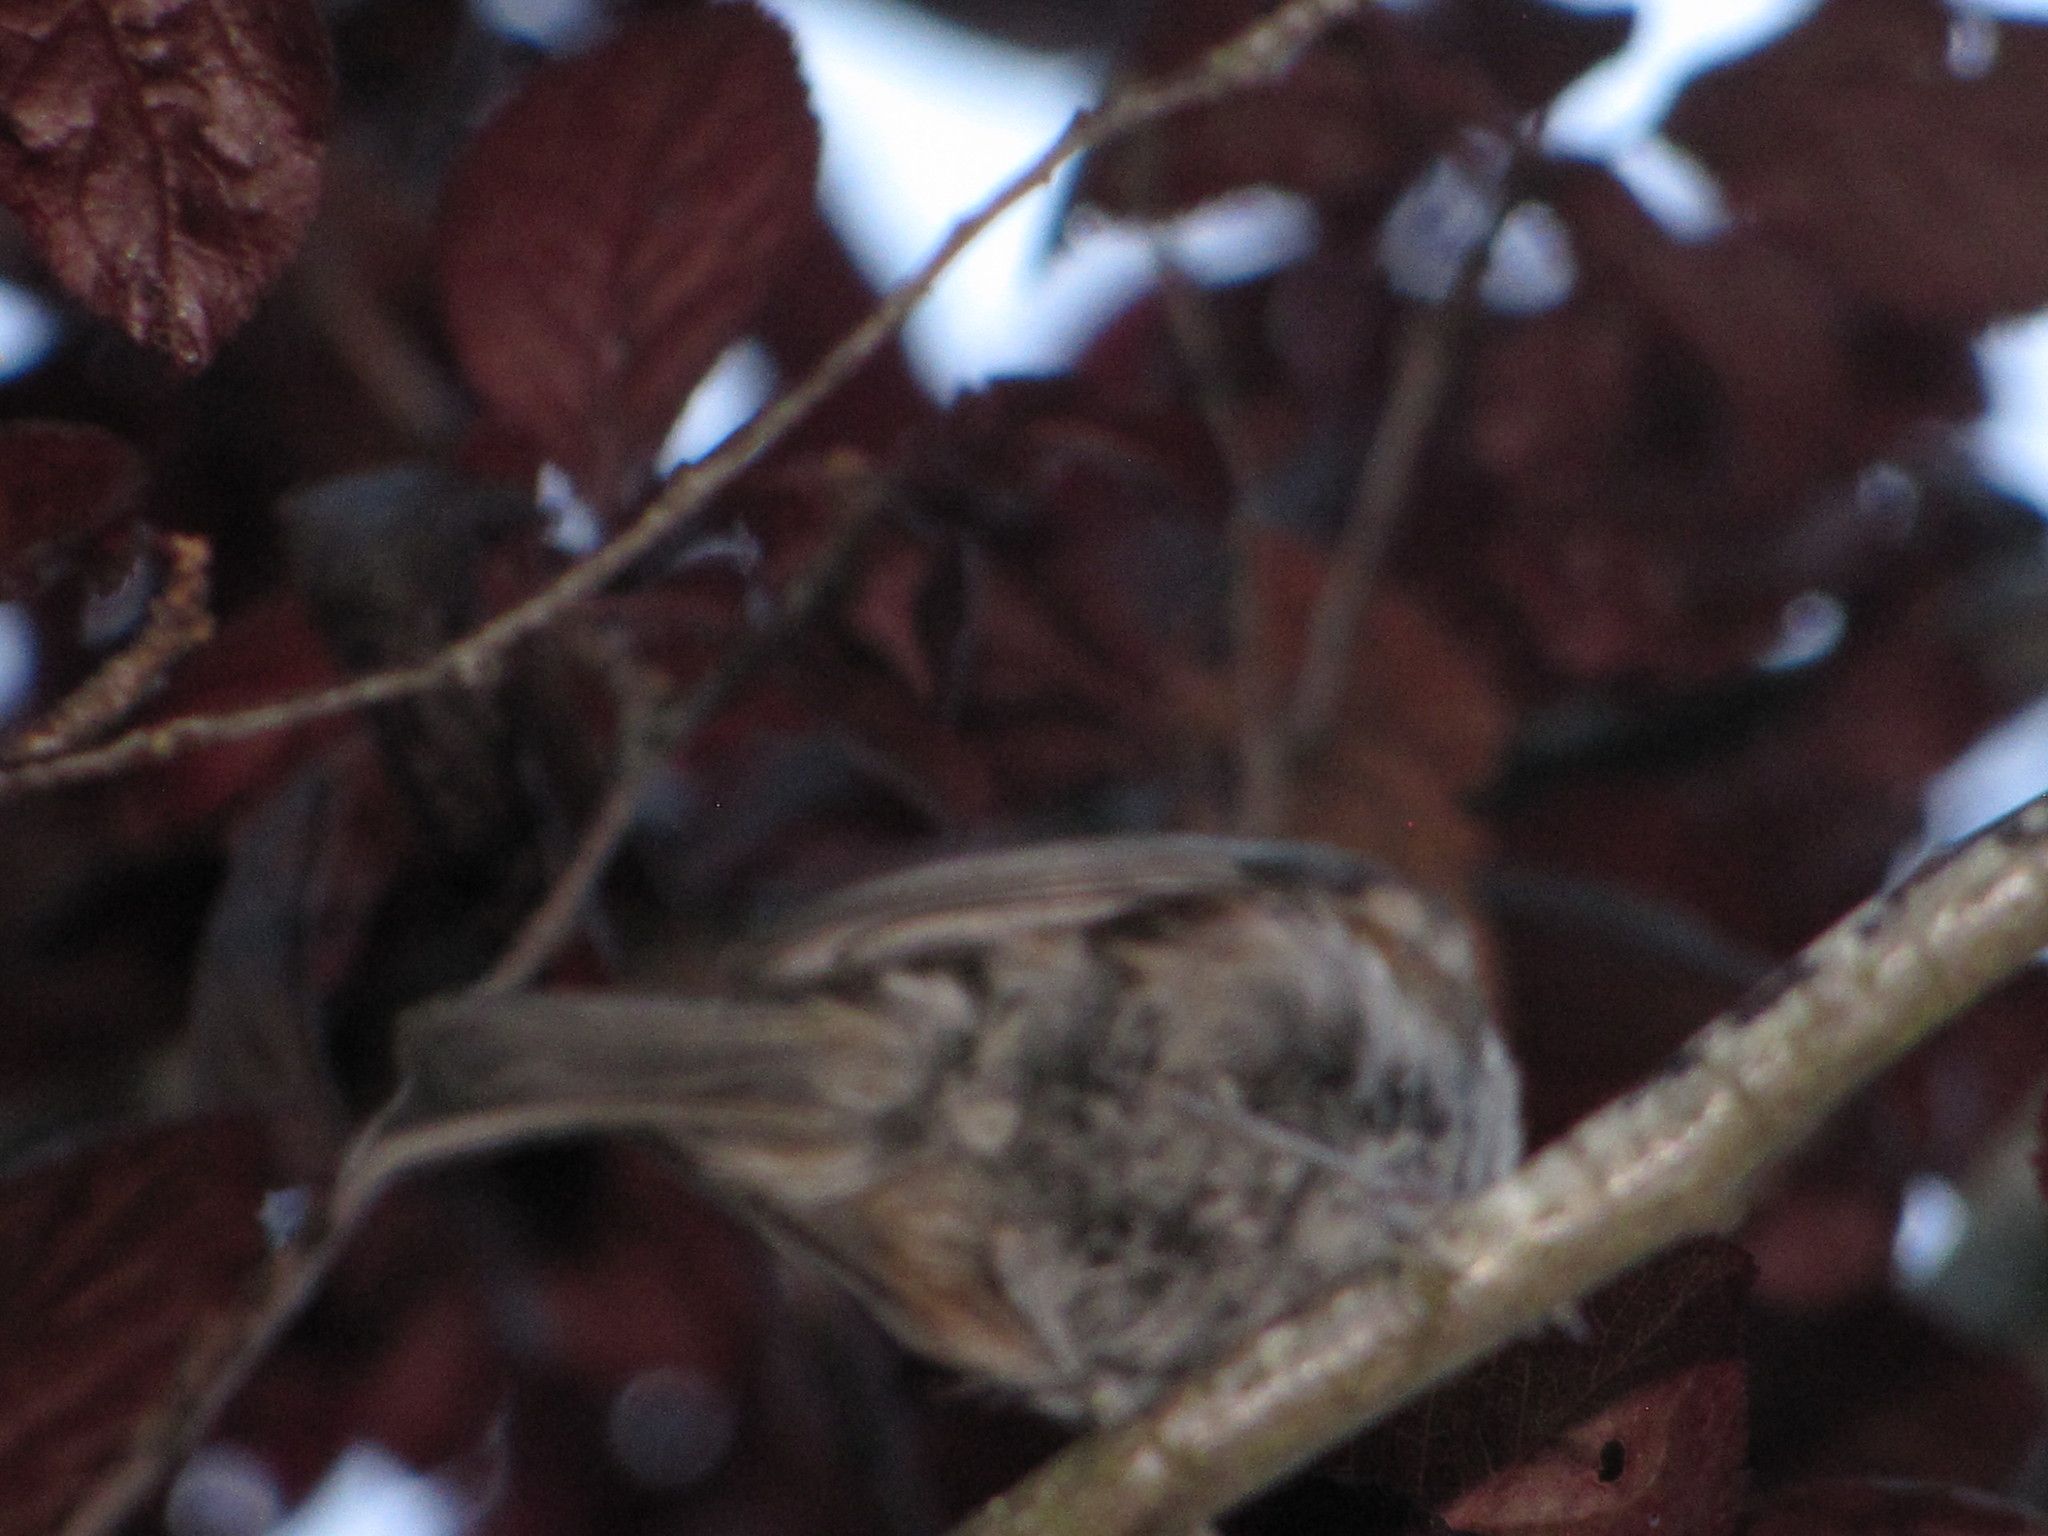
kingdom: Animalia
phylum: Chordata
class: Aves
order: Passeriformes
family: Paridae
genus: Poecile
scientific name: Poecile rufescens
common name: Chestnut-backed chickadee
